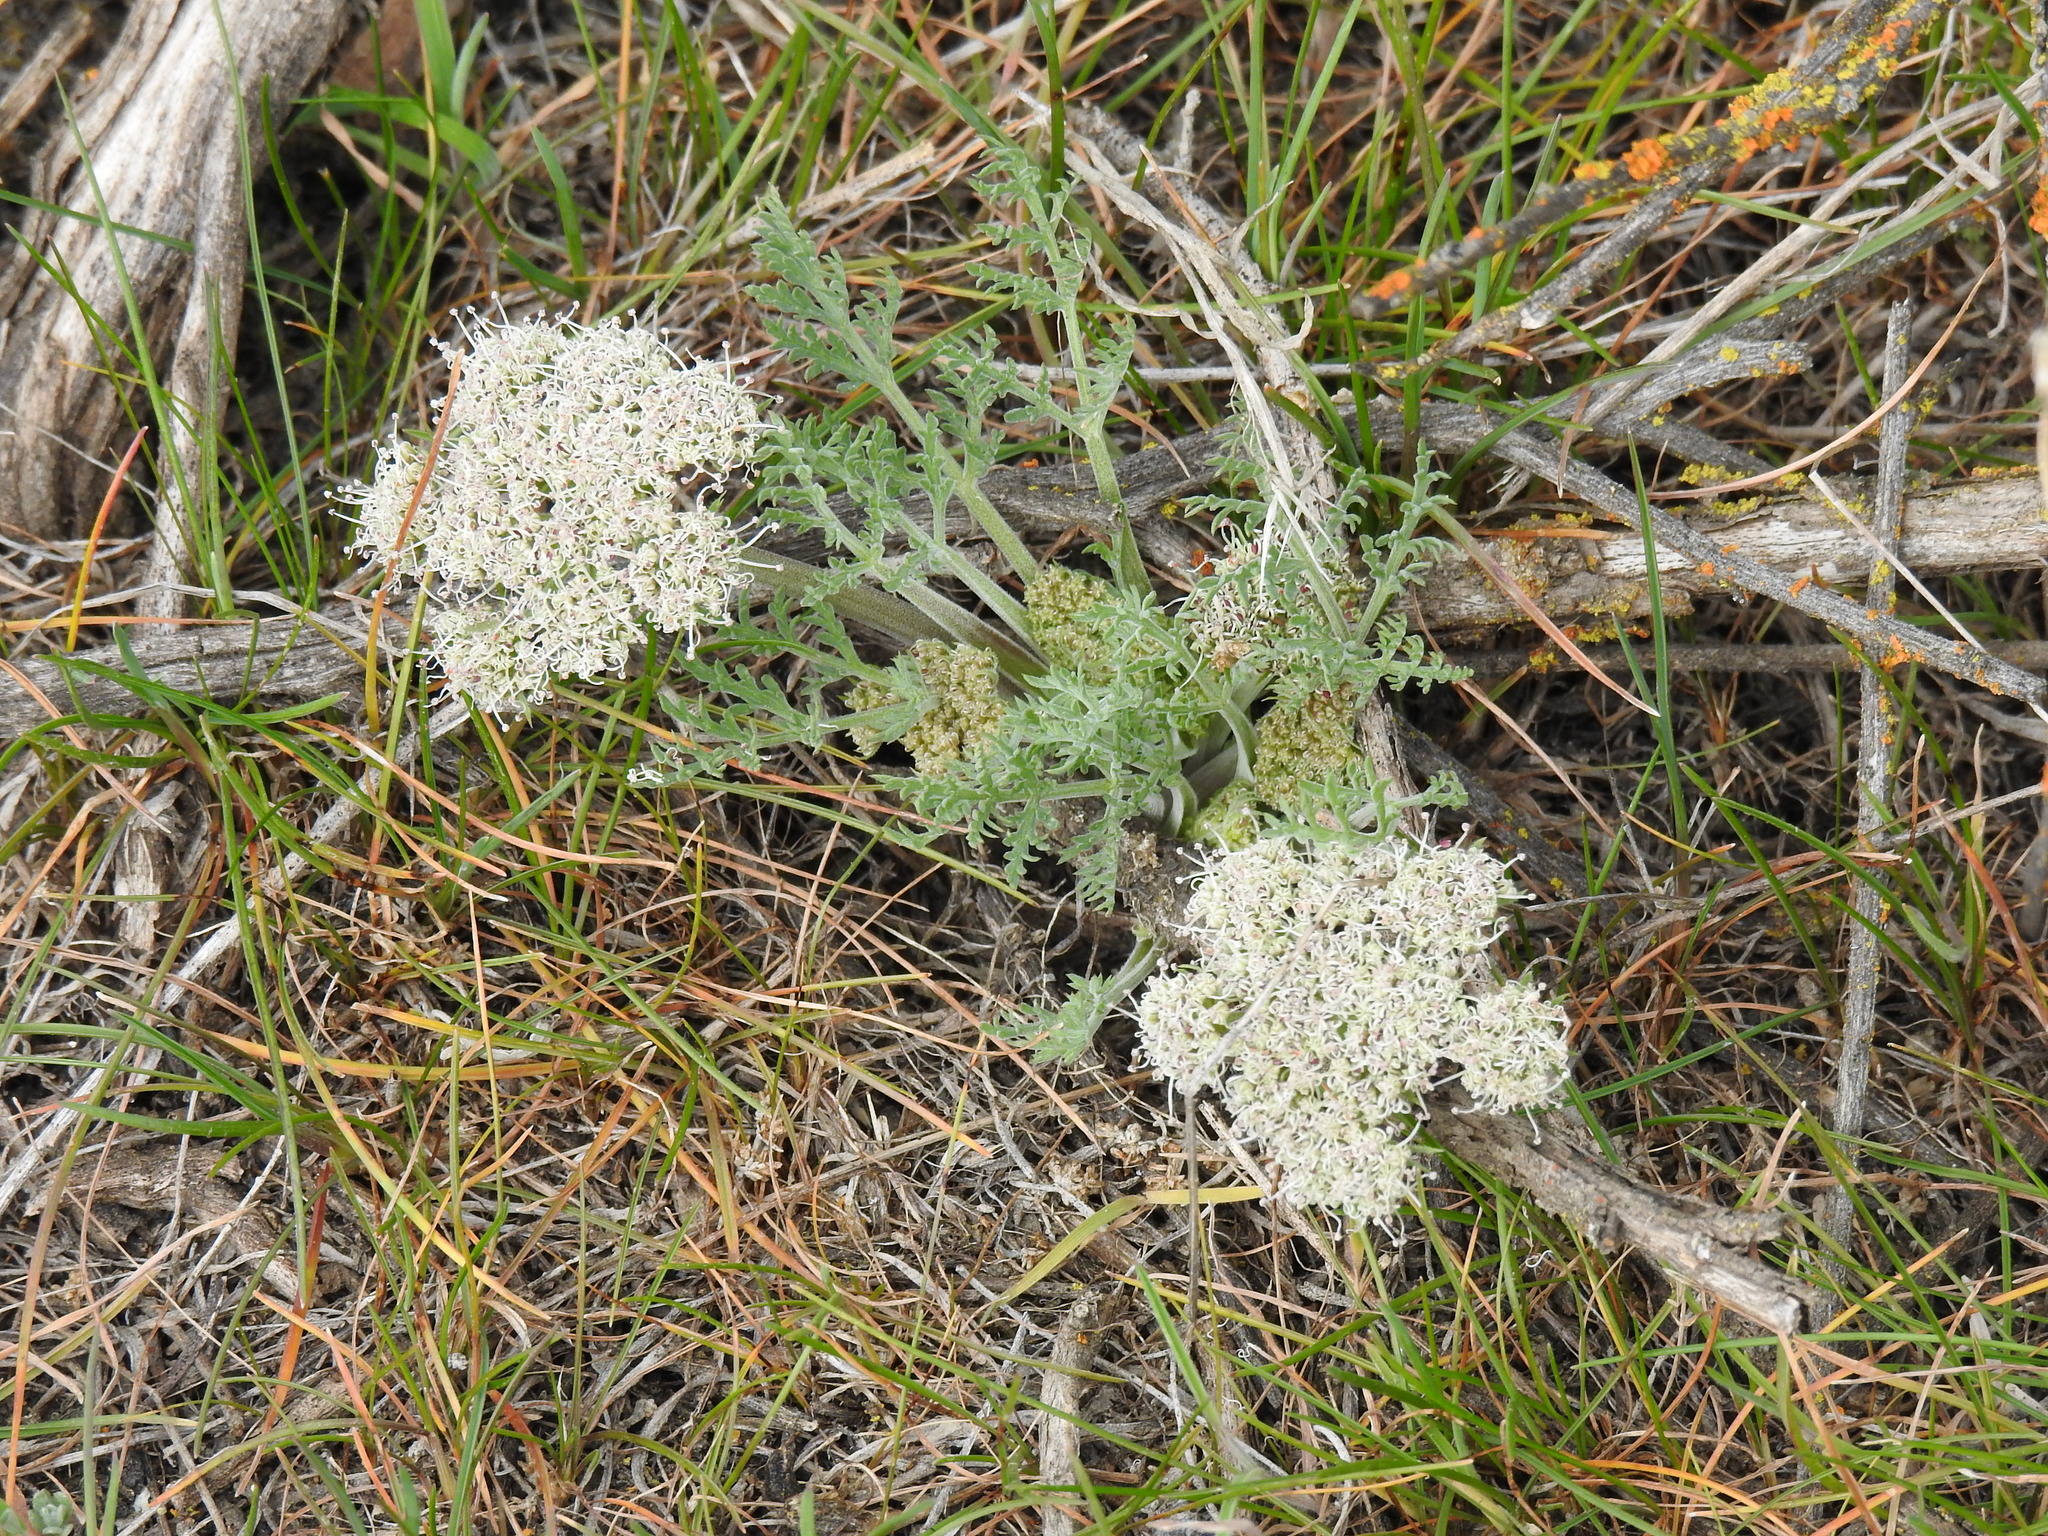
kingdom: Plantae
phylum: Tracheophyta
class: Magnoliopsida
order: Apiales
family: Apiaceae
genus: Lomatium
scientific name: Lomatium macrocarpum
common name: Big-seed biscuitroot
